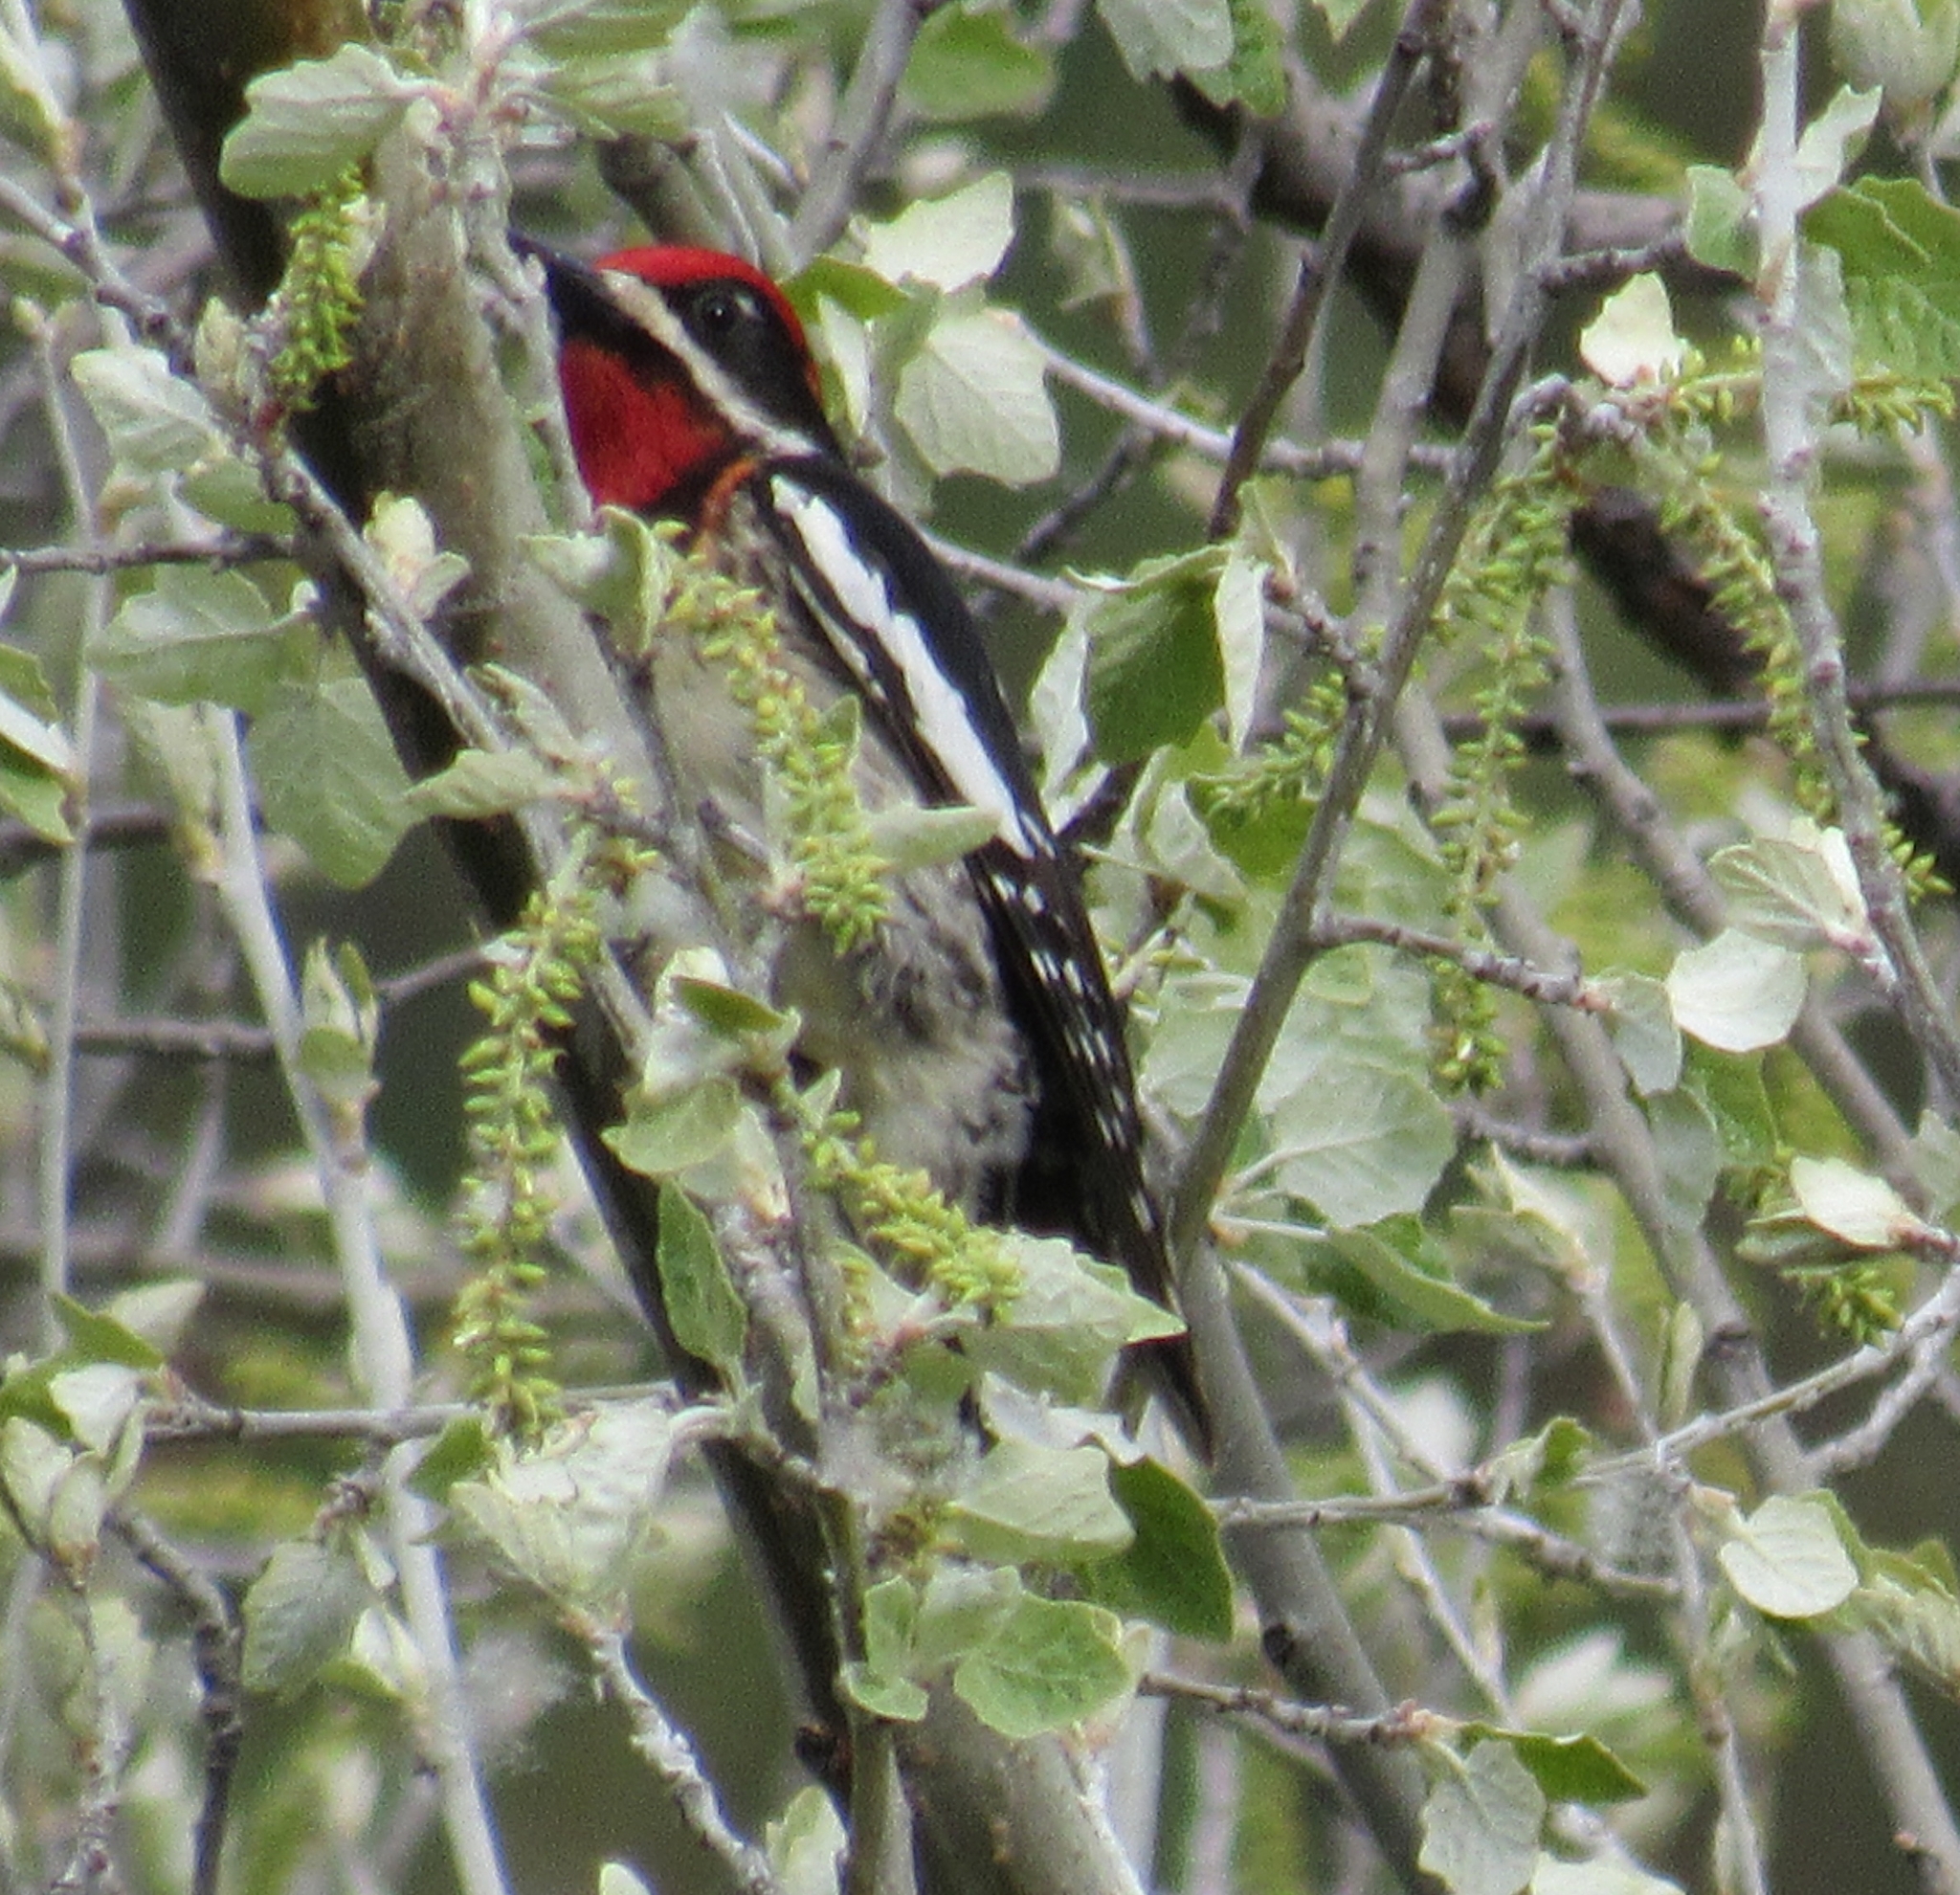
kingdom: Animalia
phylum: Chordata
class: Aves
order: Piciformes
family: Picidae
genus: Sphyrapicus
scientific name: Sphyrapicus nuchalis
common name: Red-naped sapsucker
